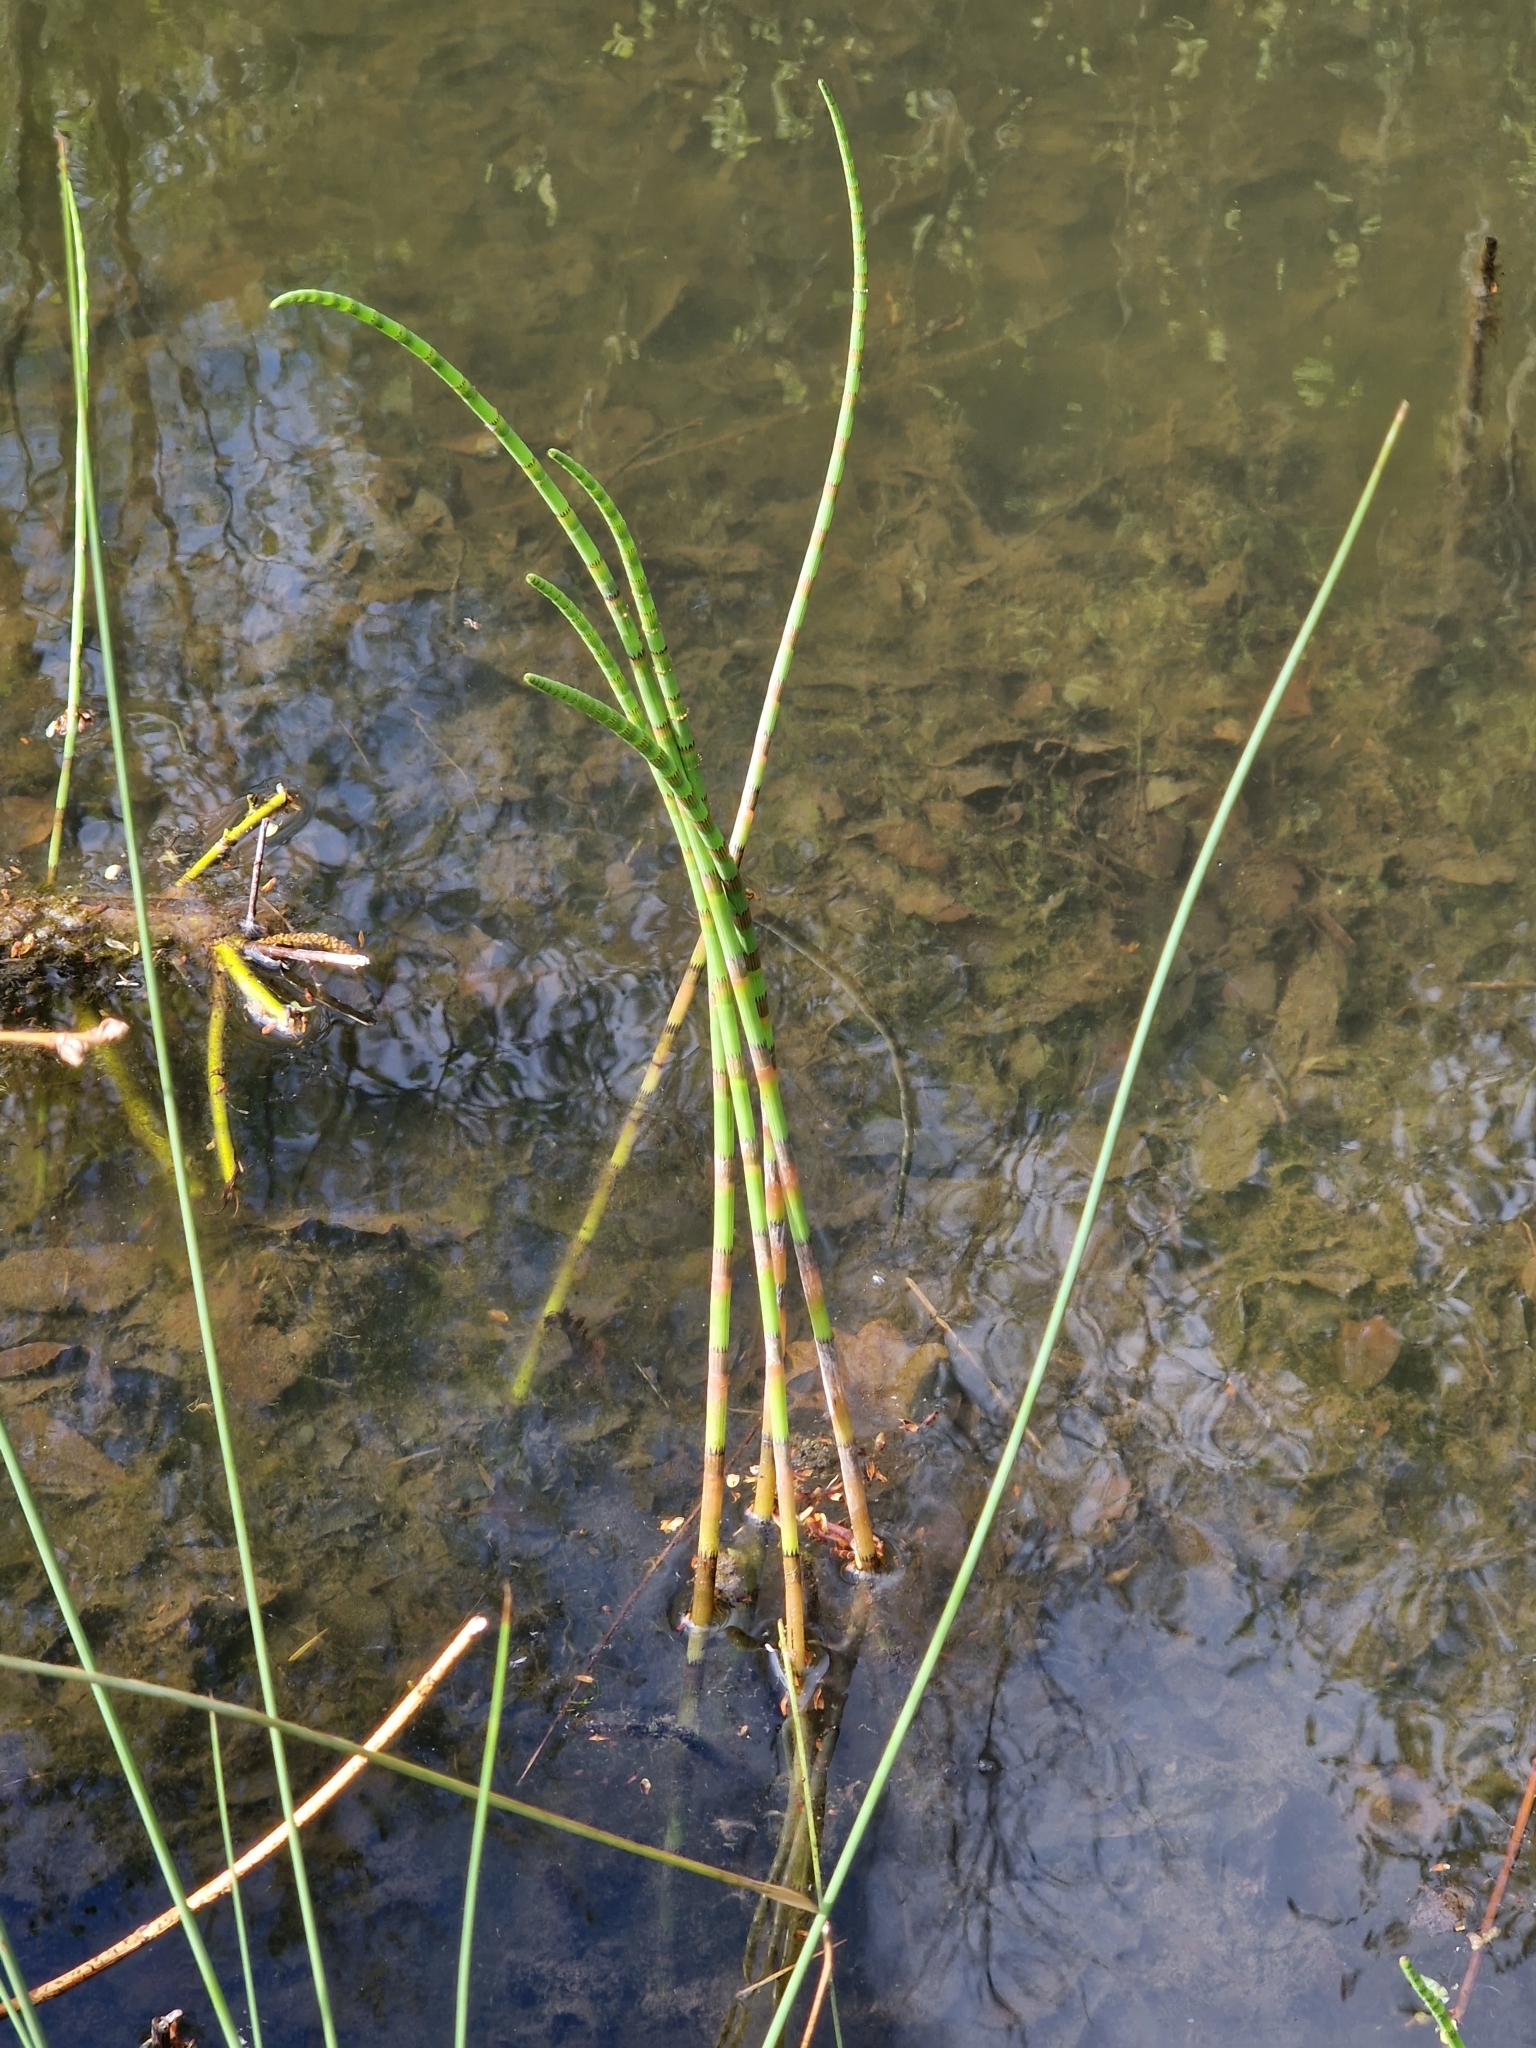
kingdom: Plantae
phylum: Tracheophyta
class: Polypodiopsida
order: Equisetales
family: Equisetaceae
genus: Equisetum
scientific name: Equisetum fluviatile
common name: Water horsetail
